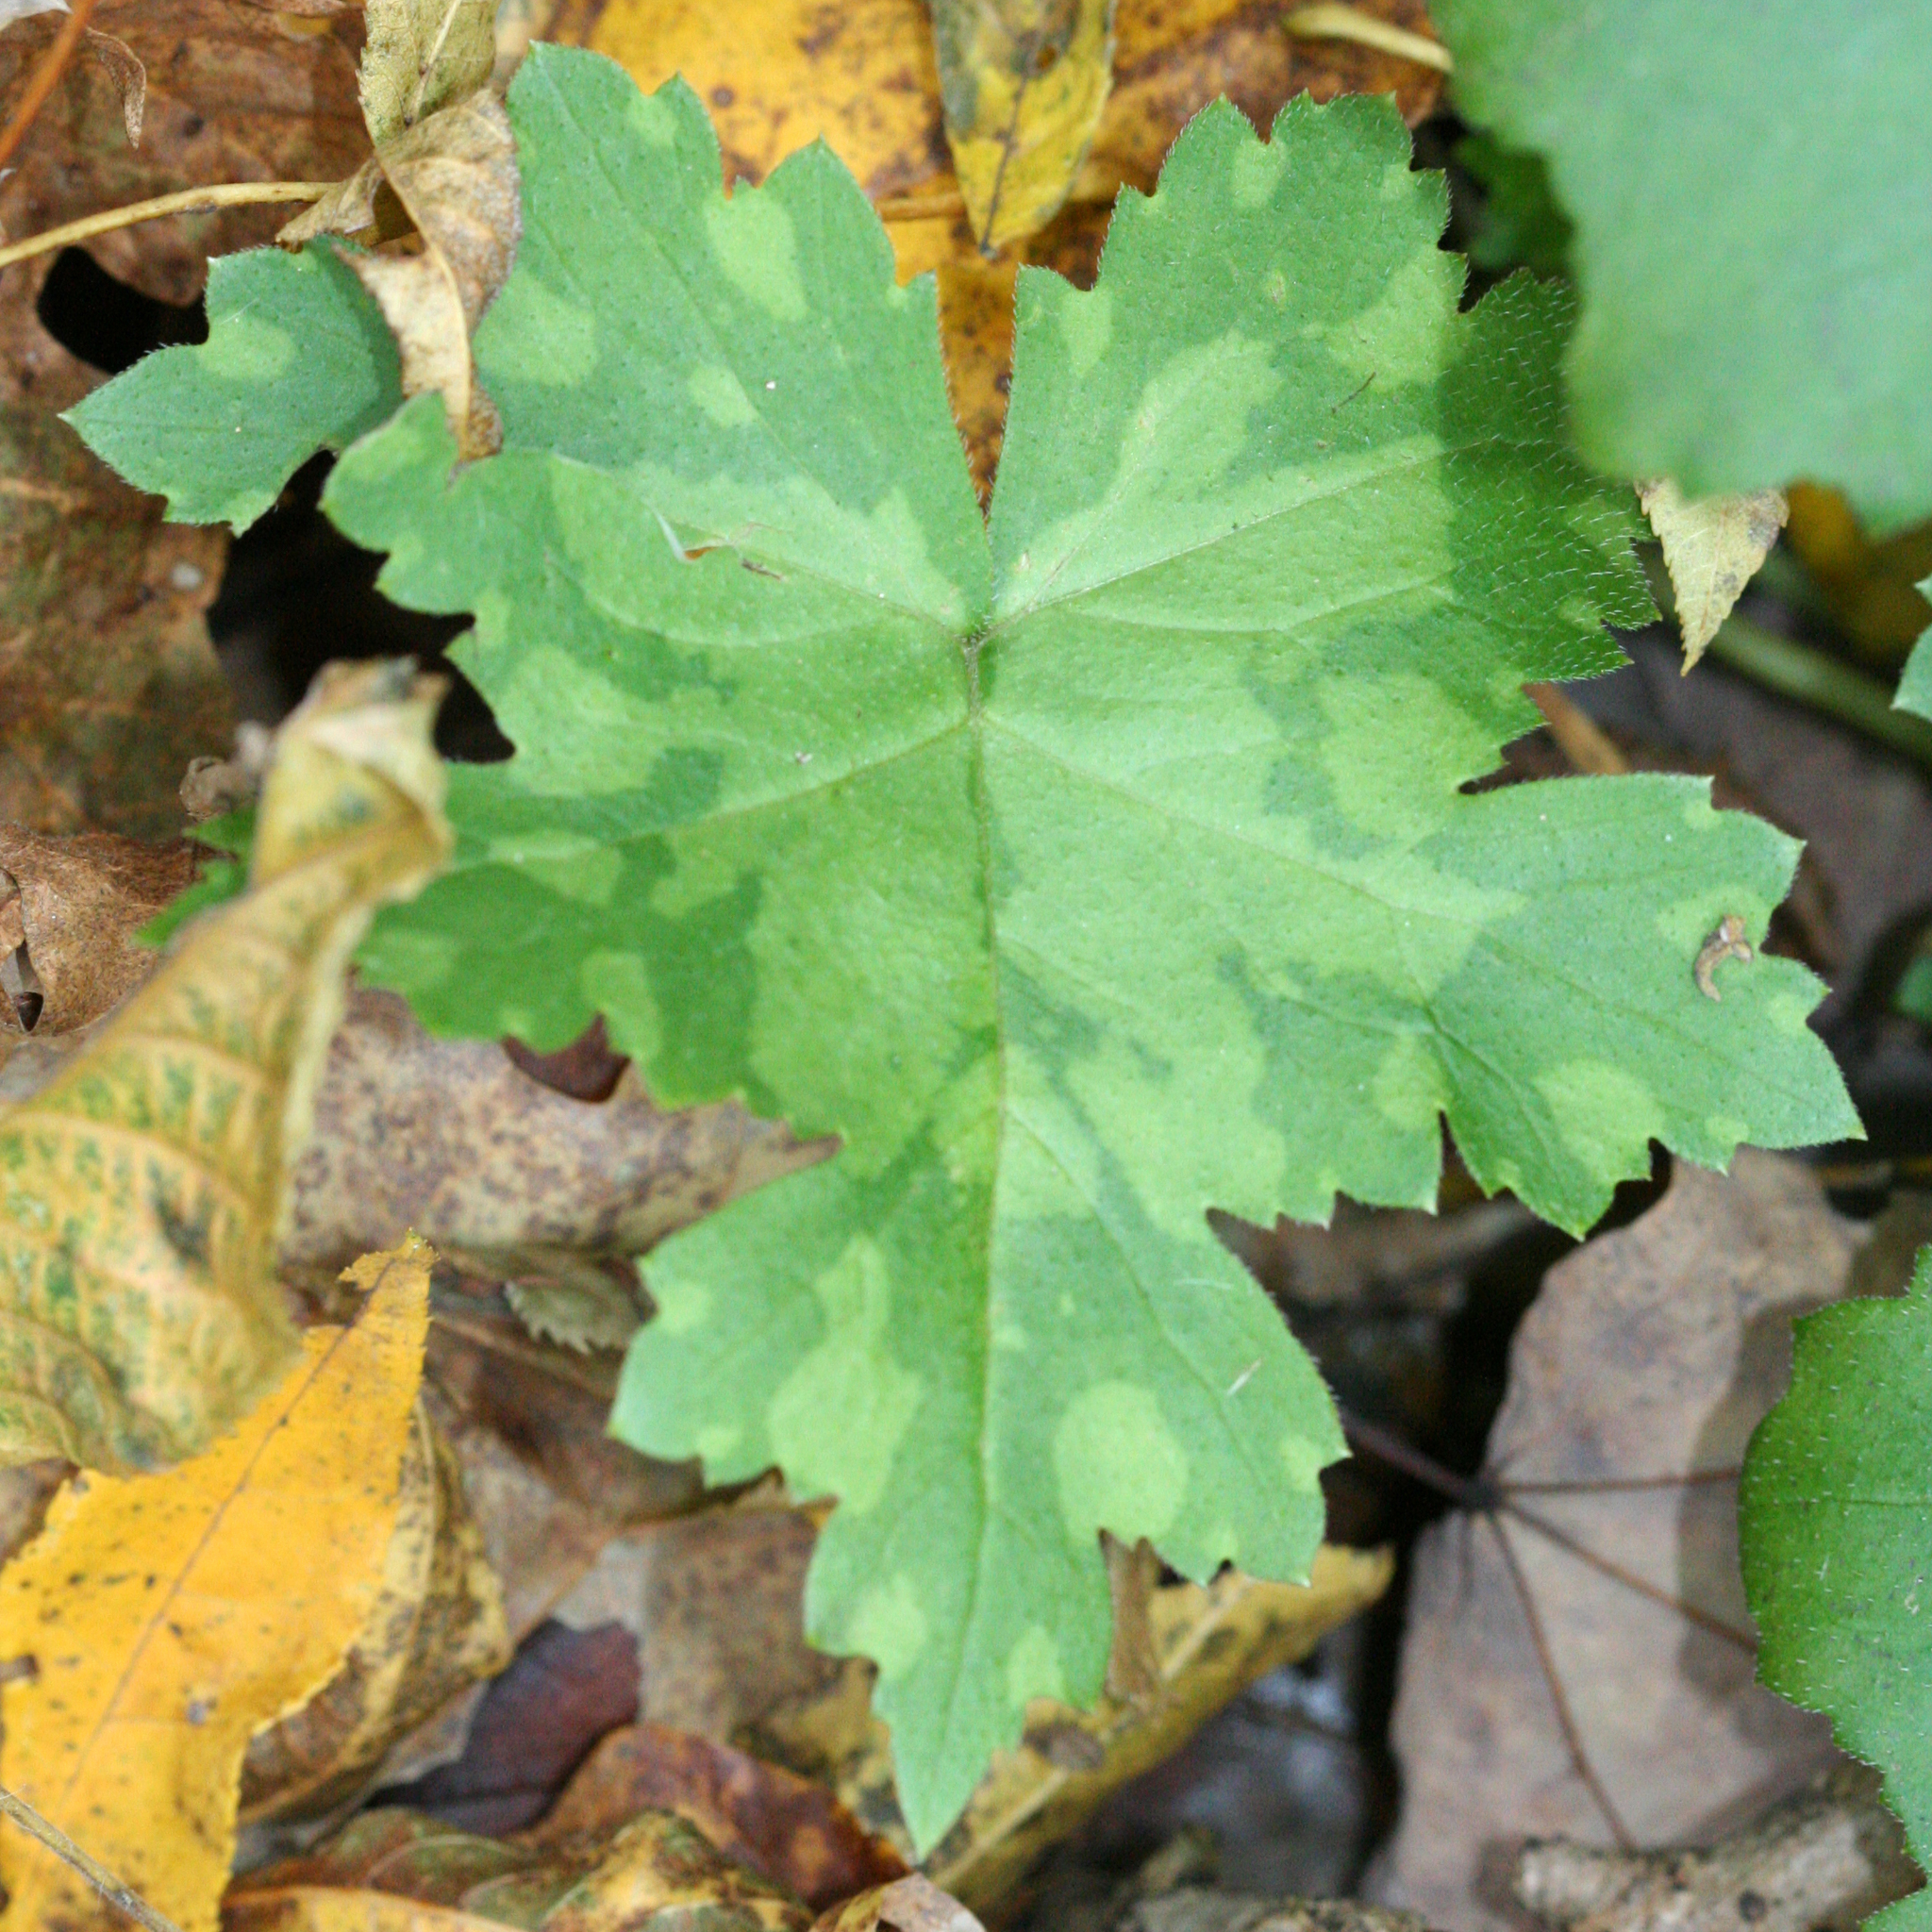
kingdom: Plantae
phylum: Tracheophyta
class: Magnoliopsida
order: Boraginales
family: Hydrophyllaceae
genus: Hydrophyllum
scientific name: Hydrophyllum canadense
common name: Canada waterleaf
